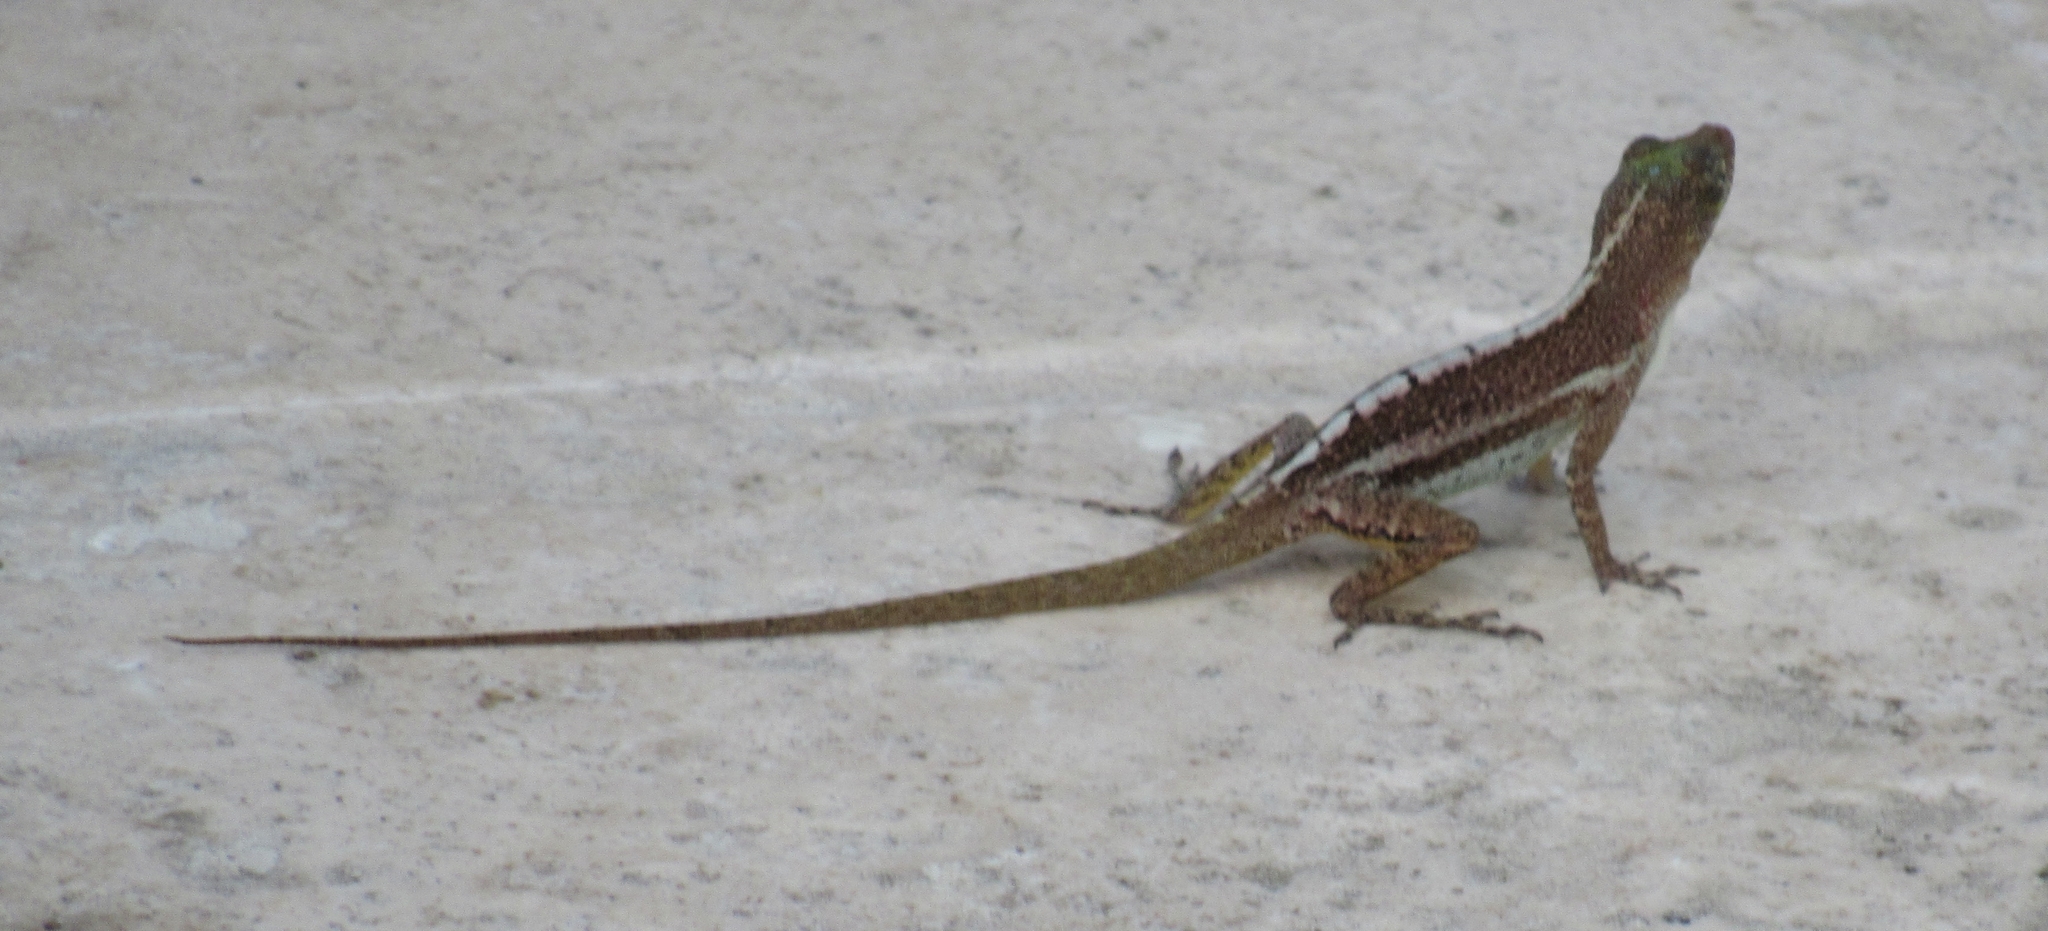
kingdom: Animalia
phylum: Chordata
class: Squamata
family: Dactyloidae
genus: Anolis
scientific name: Anolis acutus
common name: Saint croix's anole
